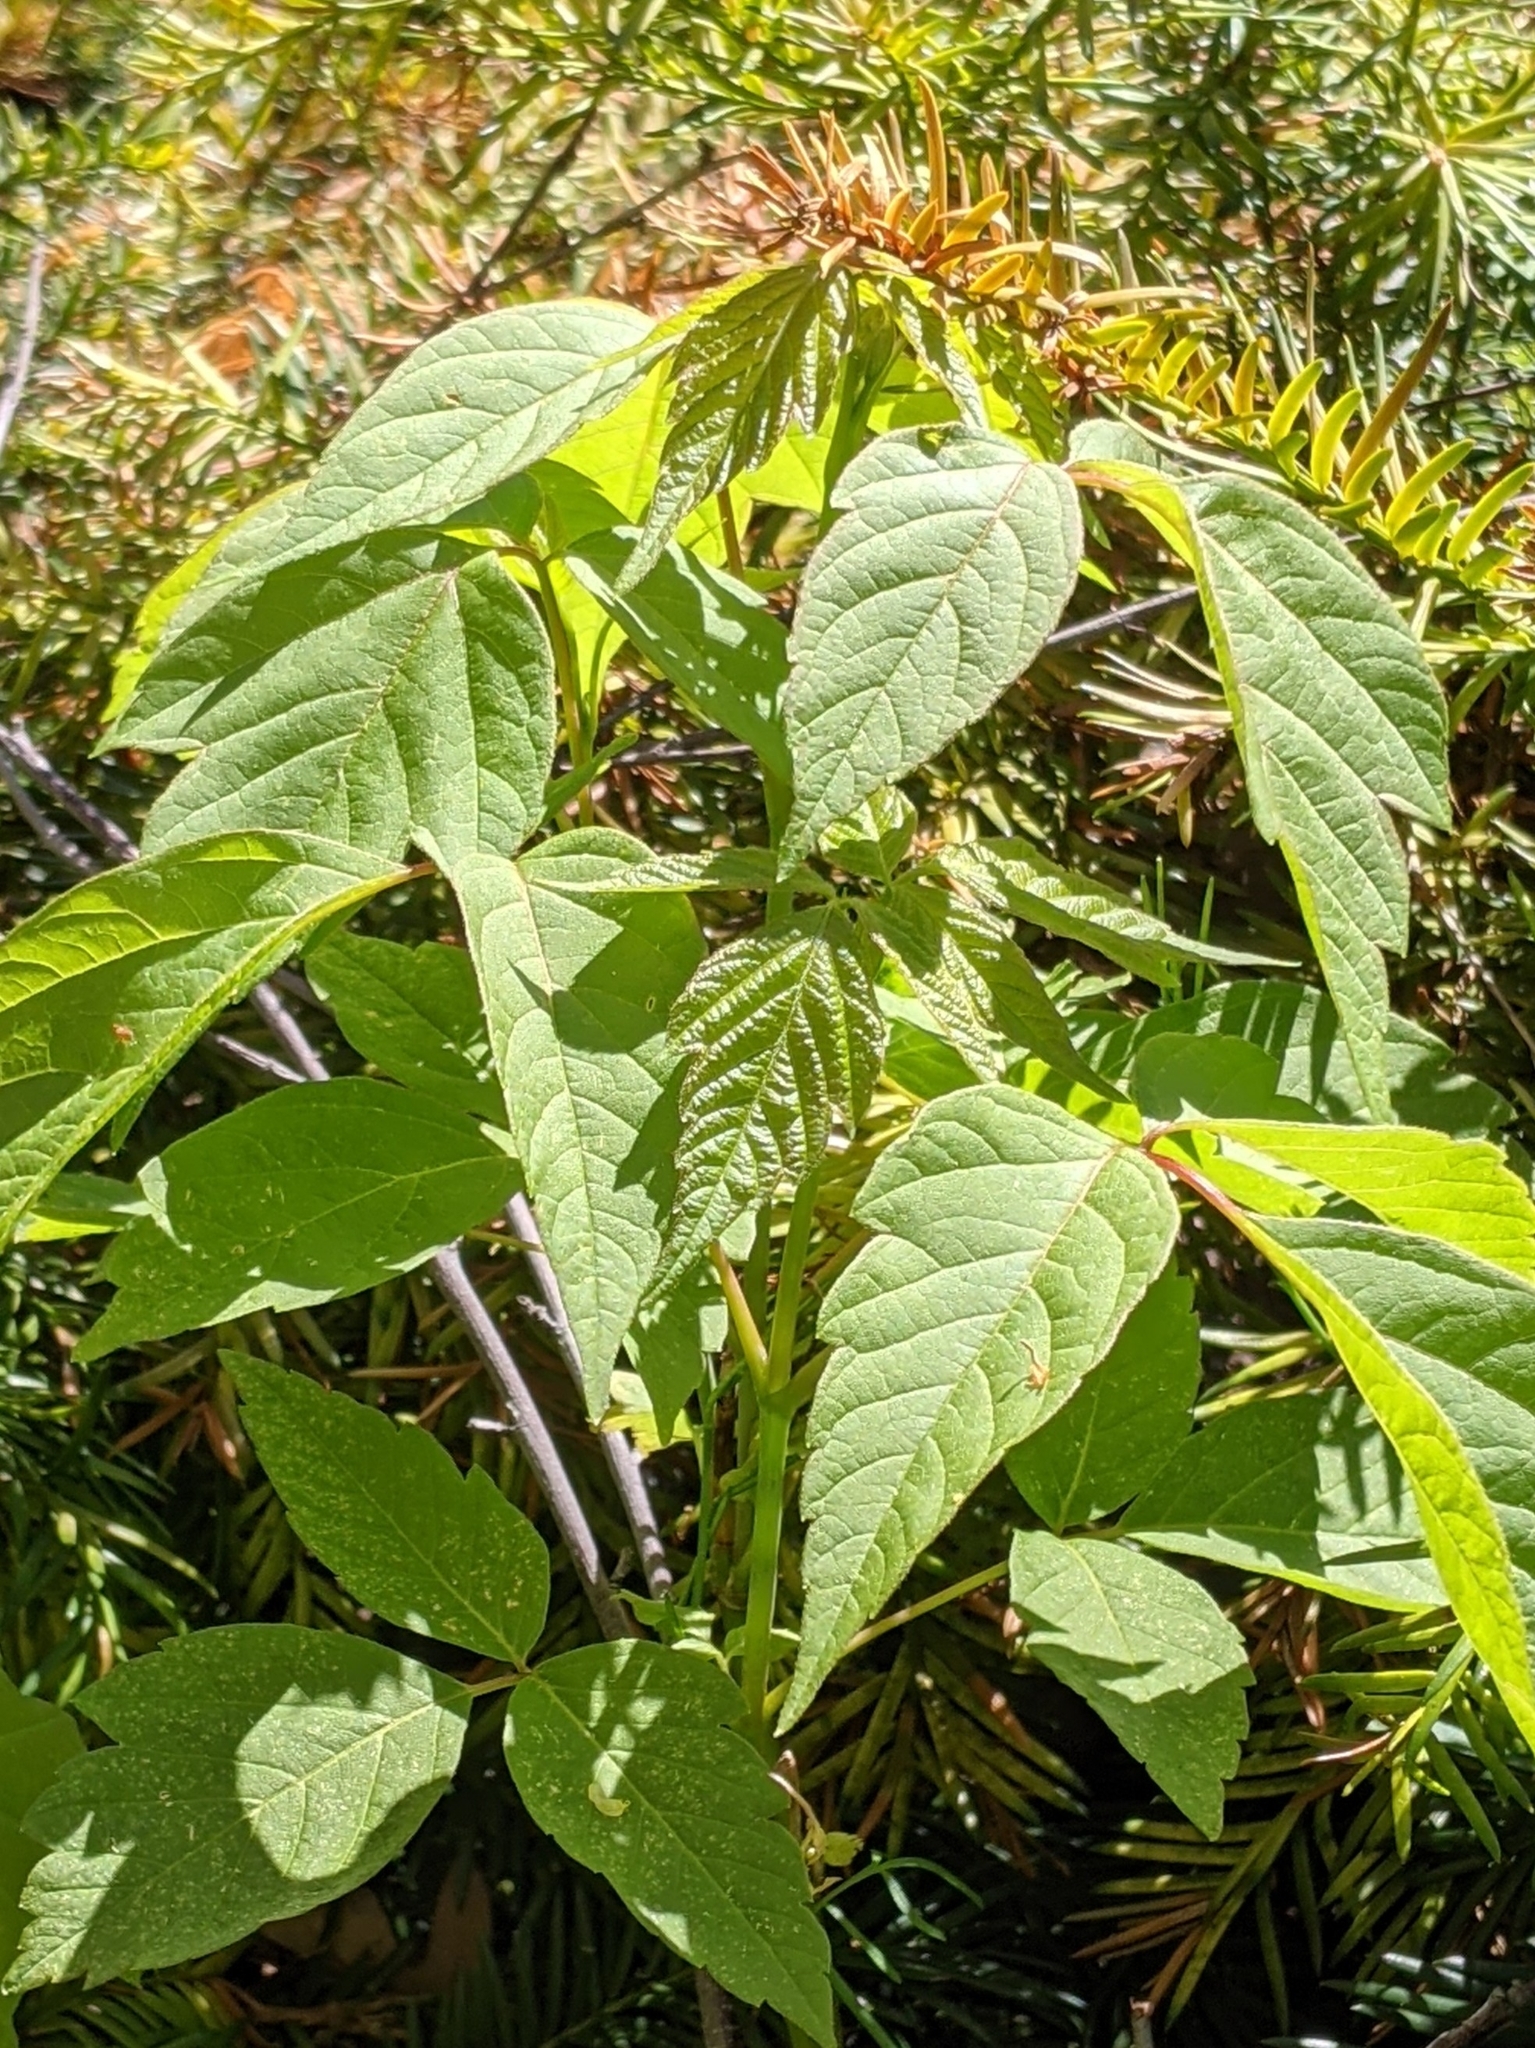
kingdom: Plantae
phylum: Tracheophyta
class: Magnoliopsida
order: Sapindales
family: Sapindaceae
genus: Acer
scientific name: Acer negundo
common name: Ashleaf maple
